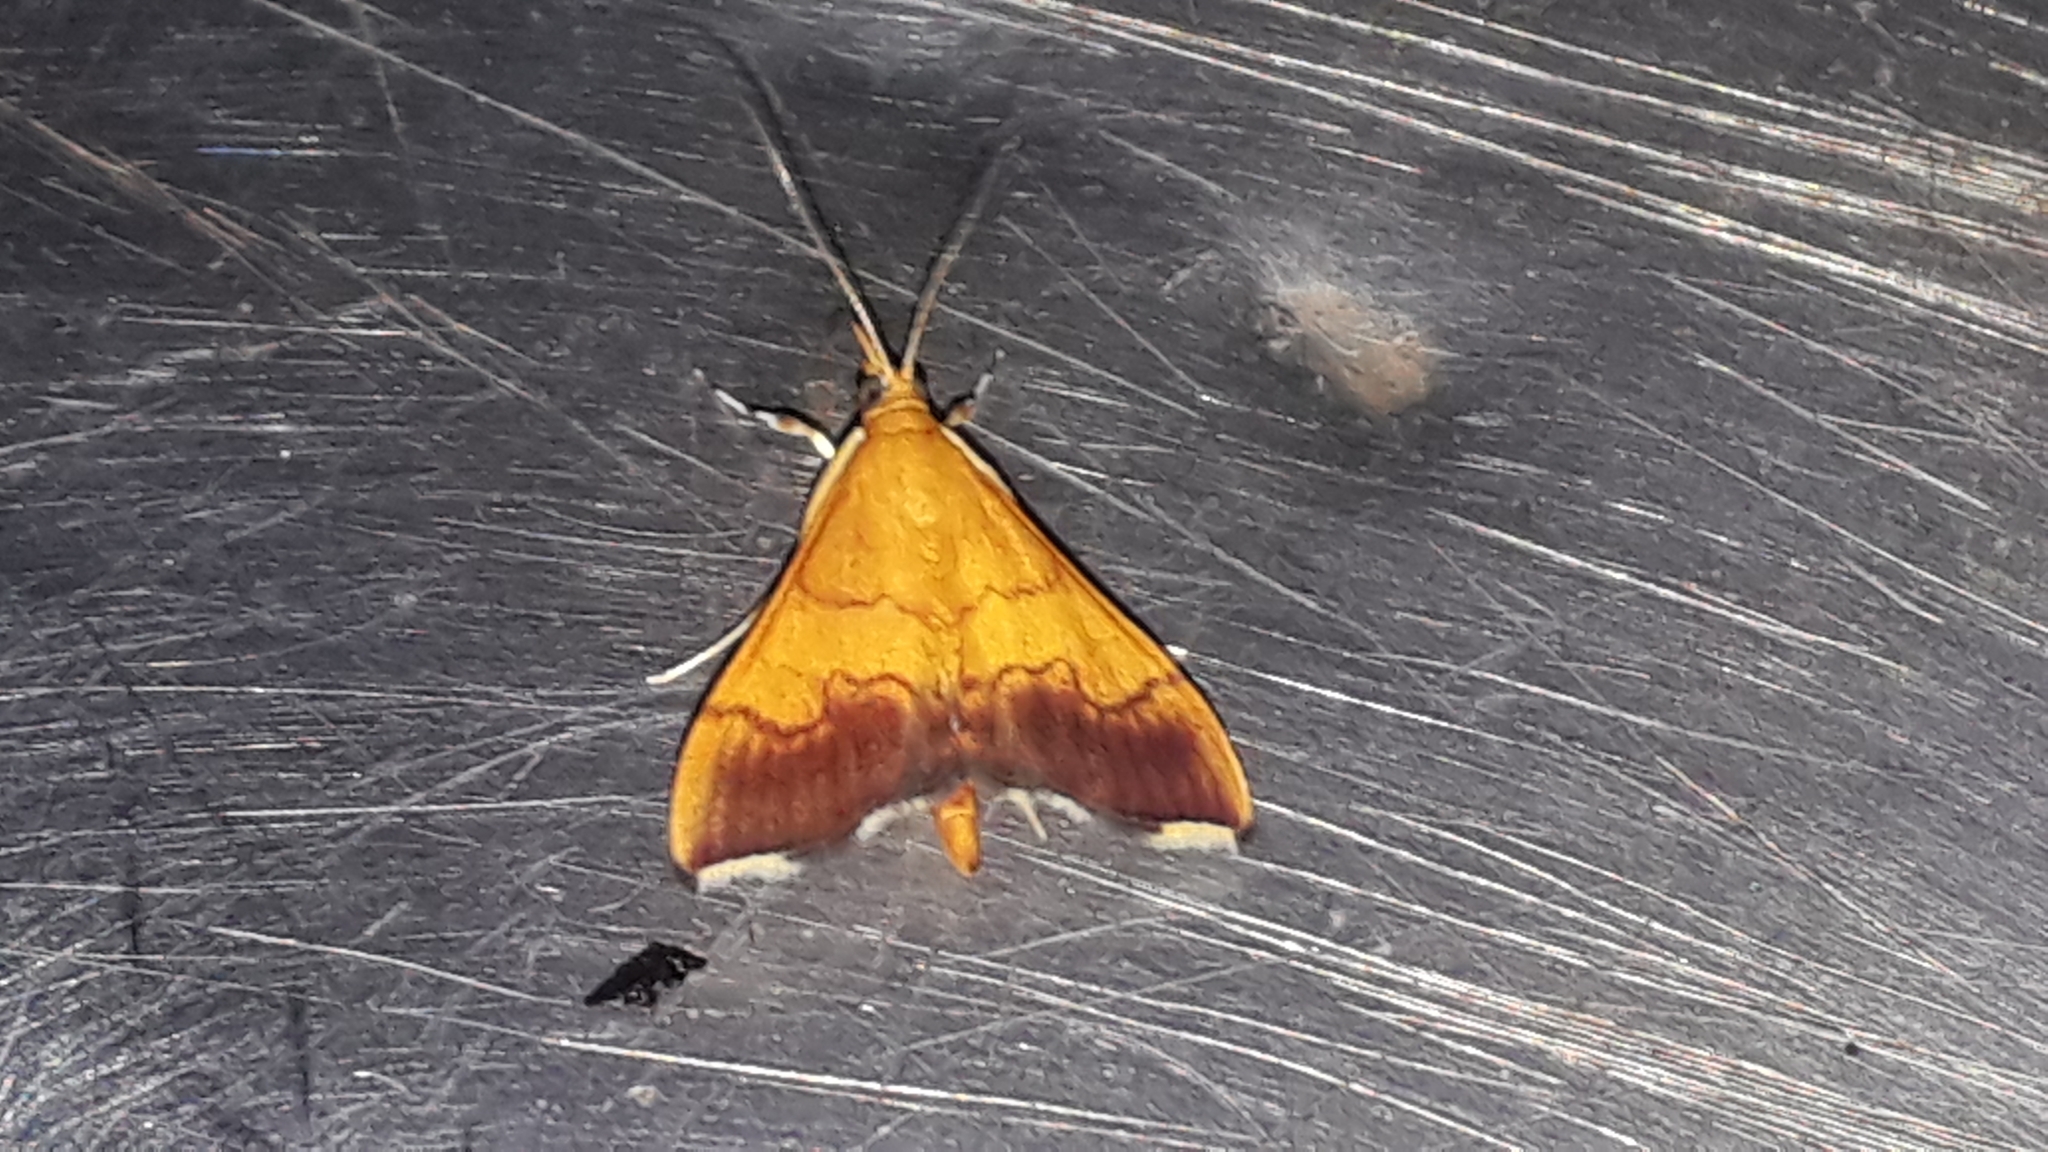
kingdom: Animalia
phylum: Arthropoda
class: Insecta
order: Lepidoptera
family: Crambidae
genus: Pyrausta
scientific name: Pyrausta bicoloralis
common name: Bicolored pyrausta moth
